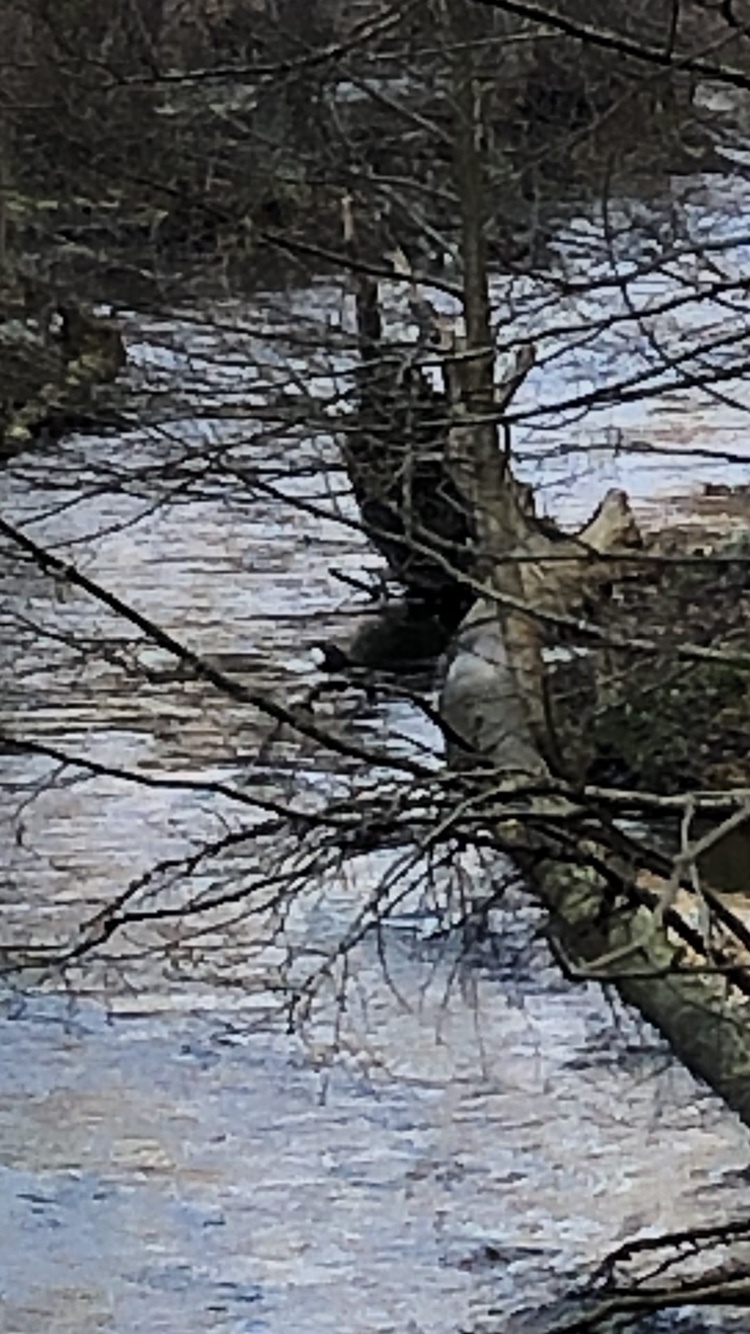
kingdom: Animalia
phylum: Chordata
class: Aves
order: Passeriformes
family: Cinclidae
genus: Cinclus
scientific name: Cinclus cinclus
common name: White-throated dipper
